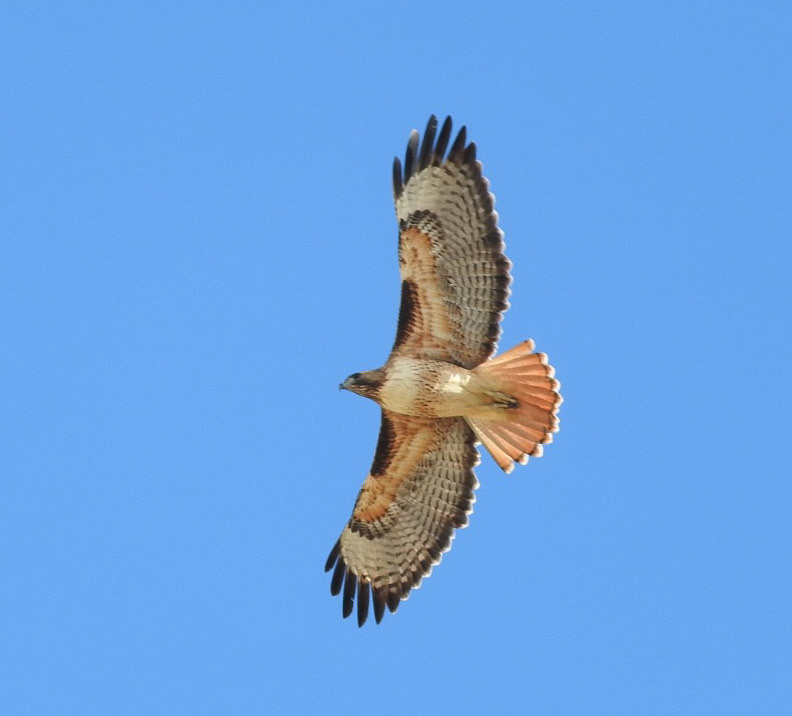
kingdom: Animalia
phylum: Chordata
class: Aves
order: Accipitriformes
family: Accipitridae
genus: Buteo
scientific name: Buteo jamaicensis
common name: Red-tailed hawk
